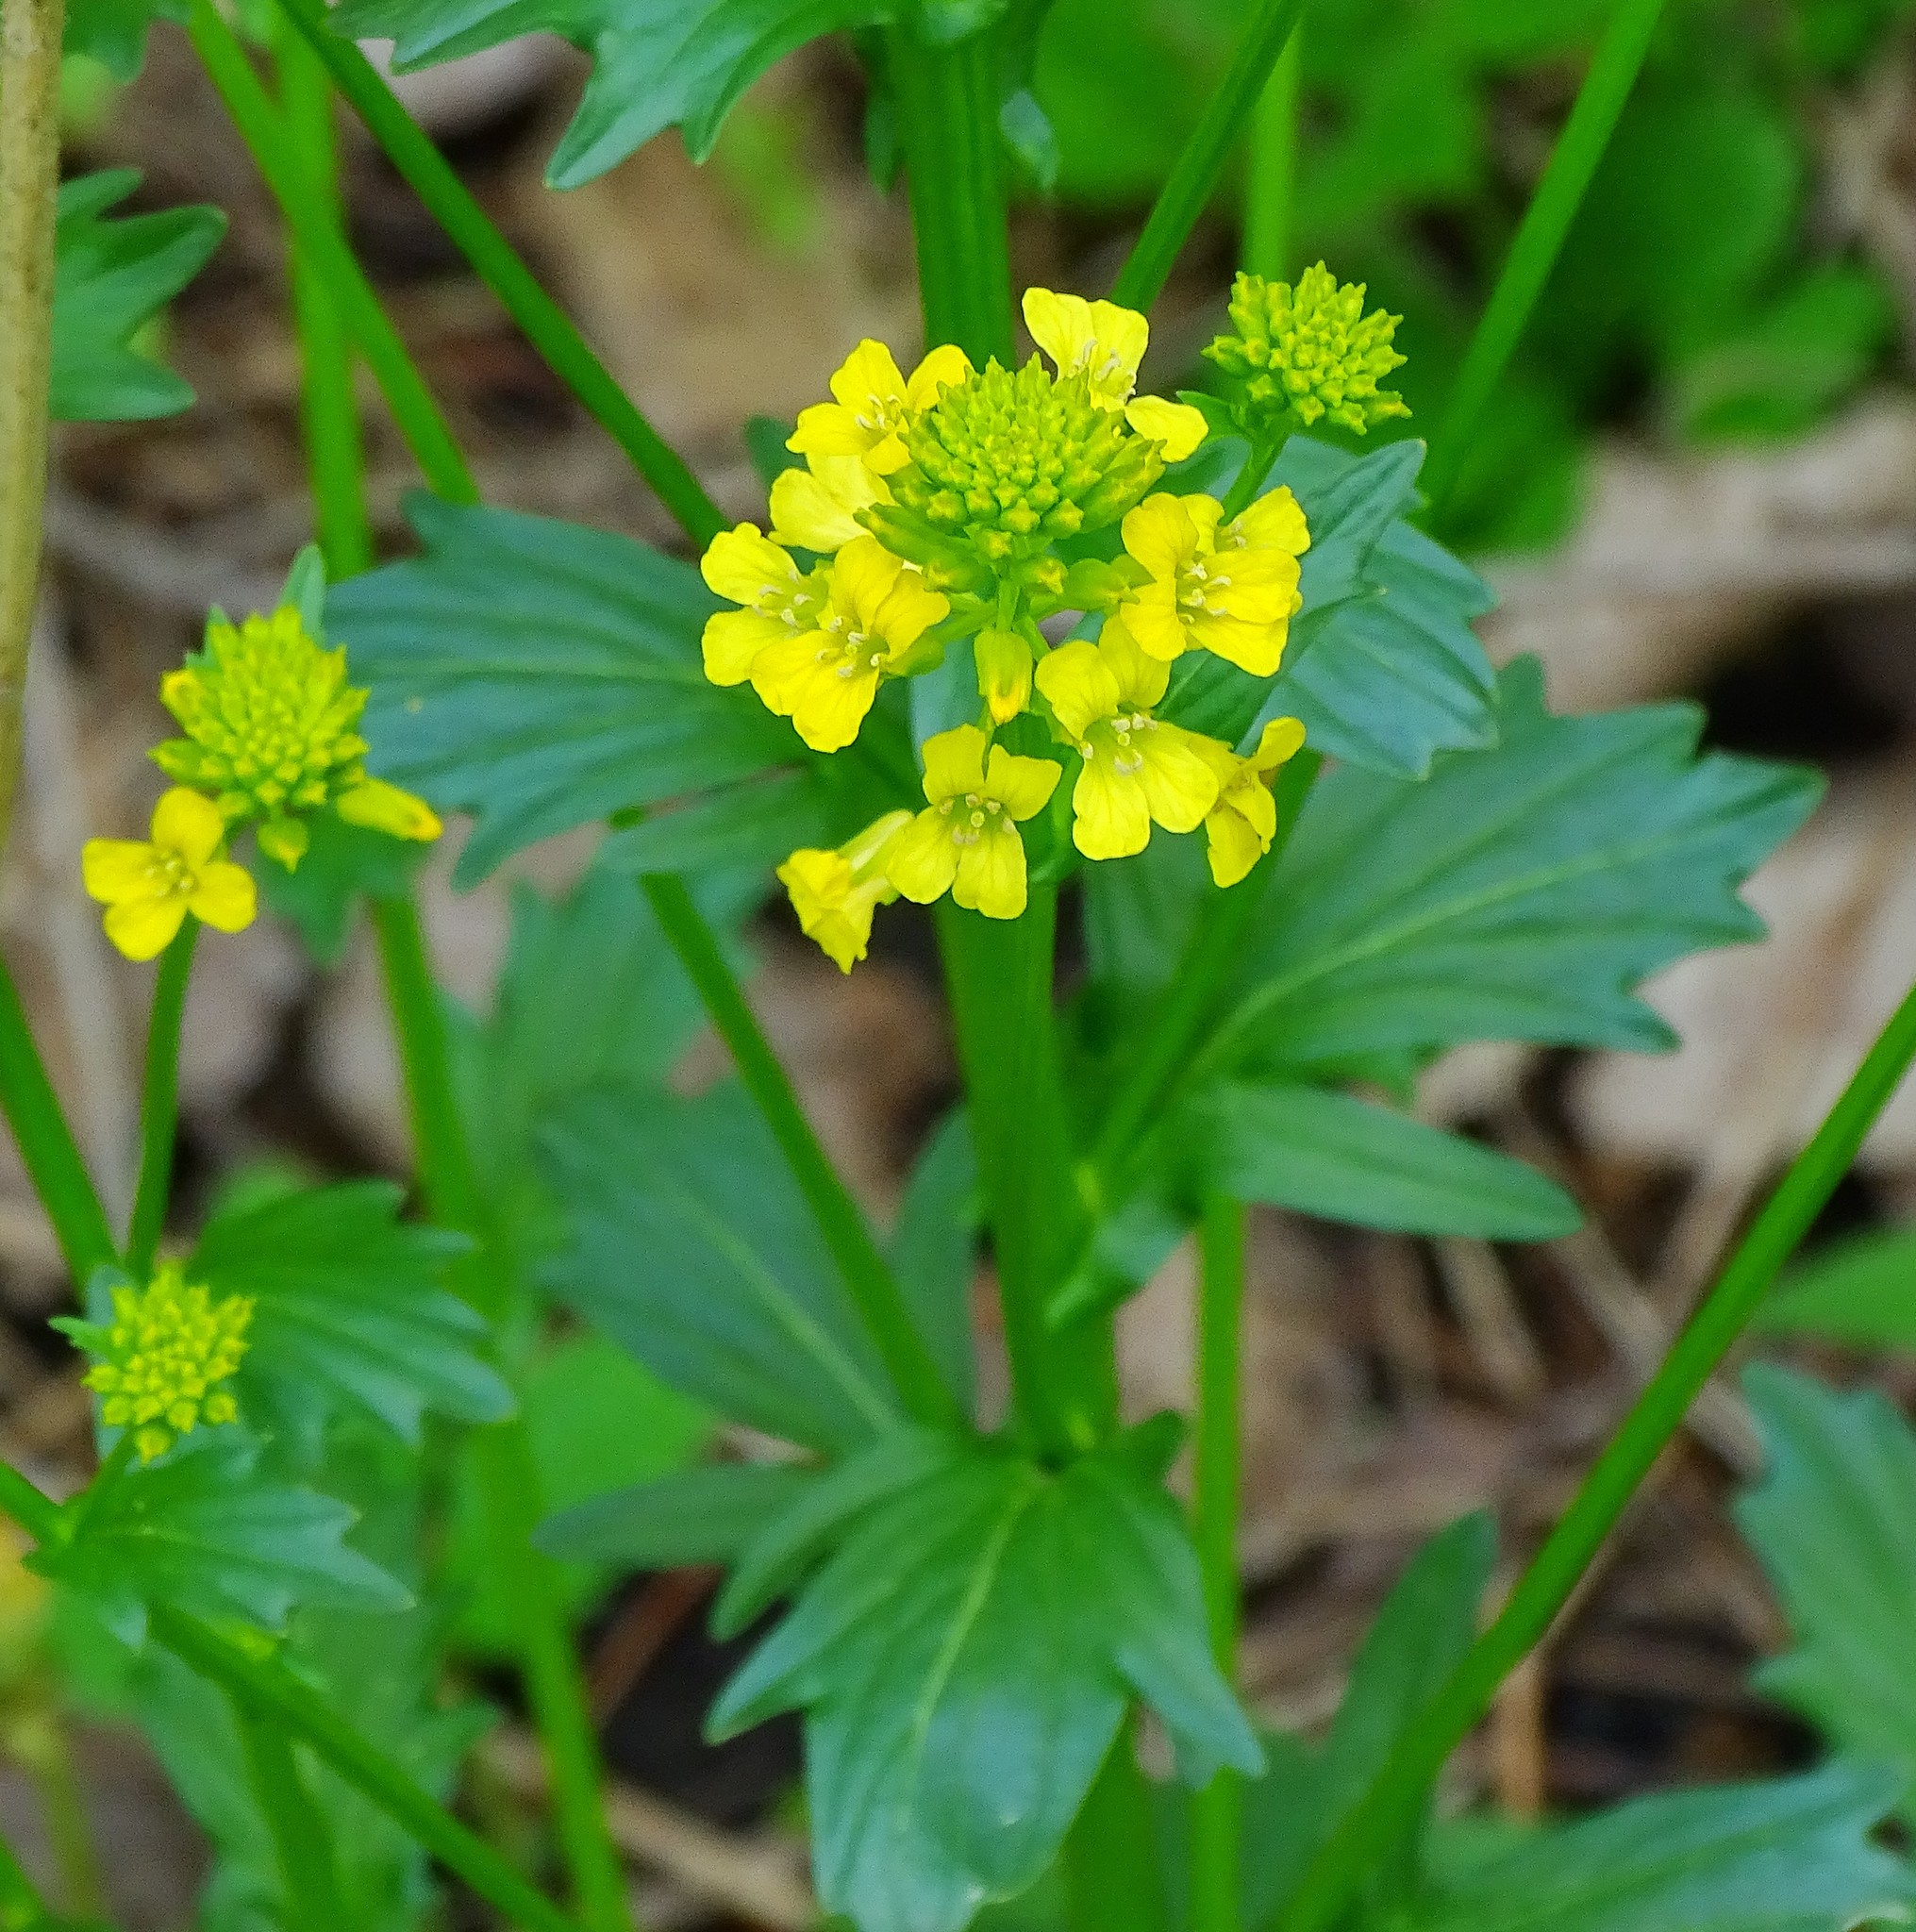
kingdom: Plantae
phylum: Tracheophyta
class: Magnoliopsida
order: Brassicales
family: Brassicaceae
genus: Barbarea
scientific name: Barbarea vulgaris
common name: Cressy-greens
